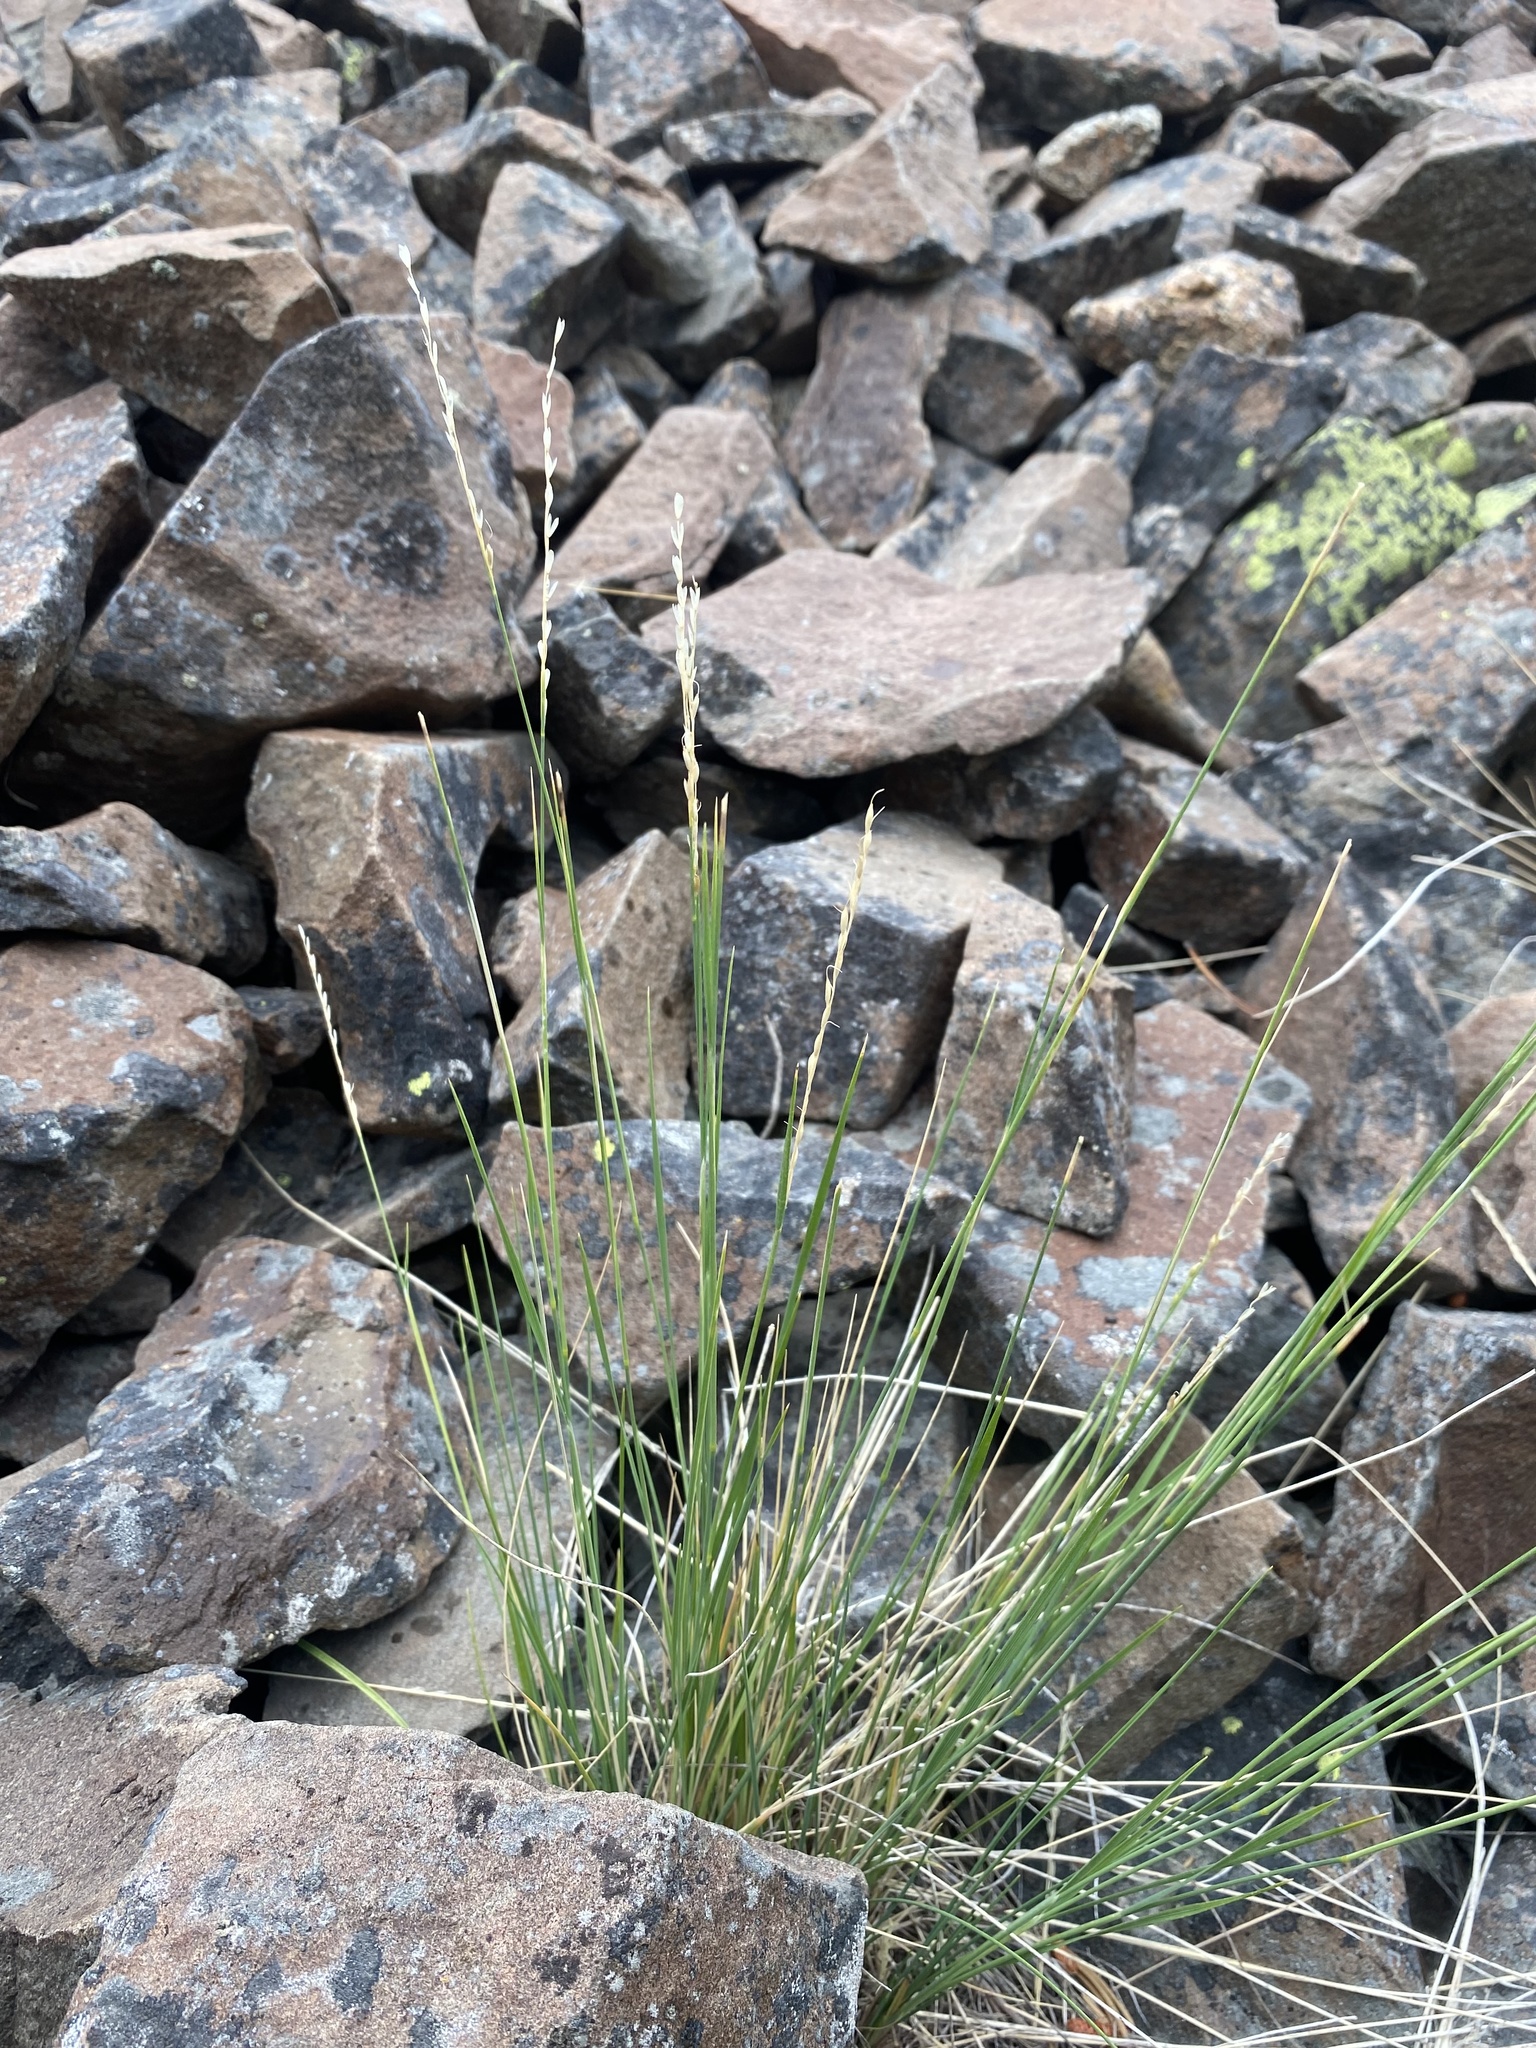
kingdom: Plantae
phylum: Tracheophyta
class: Liliopsida
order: Poales
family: Poaceae
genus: Piptatheropsis
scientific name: Piptatheropsis exigua
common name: Little mountain ricegrass
